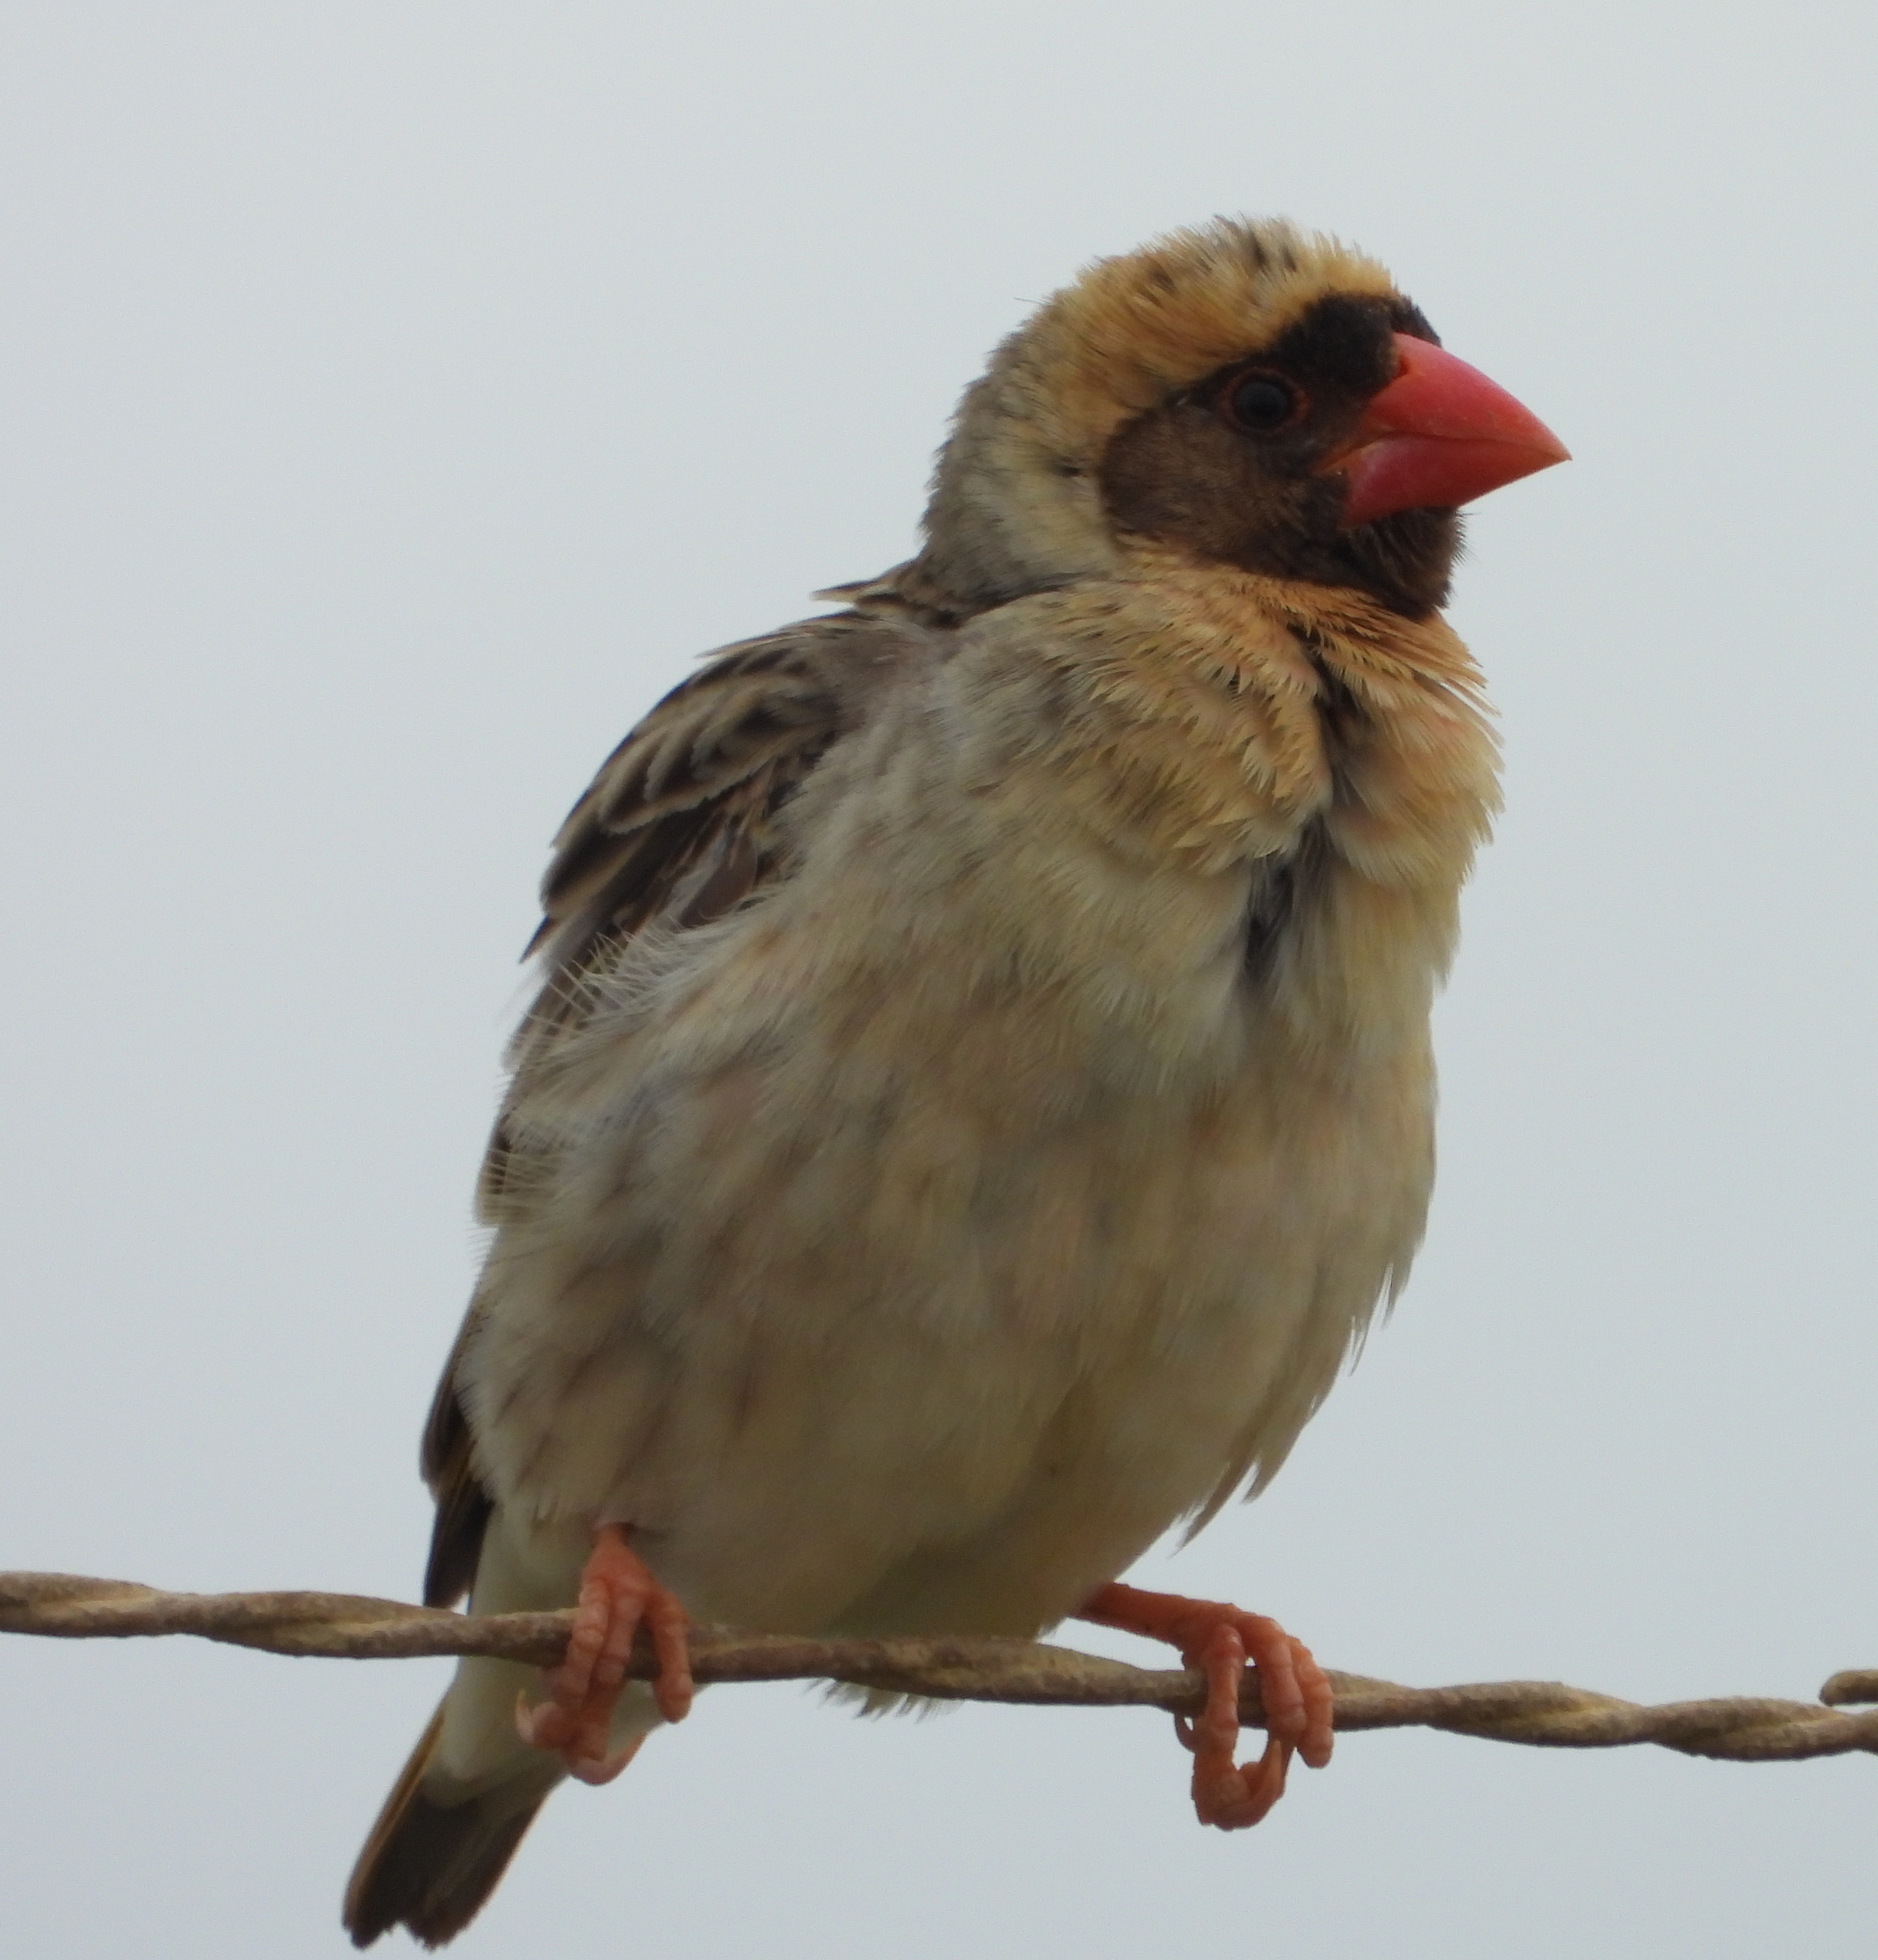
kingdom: Animalia
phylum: Chordata
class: Aves
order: Passeriformes
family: Ploceidae
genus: Quelea
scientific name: Quelea quelea
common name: Red-billed quelea
